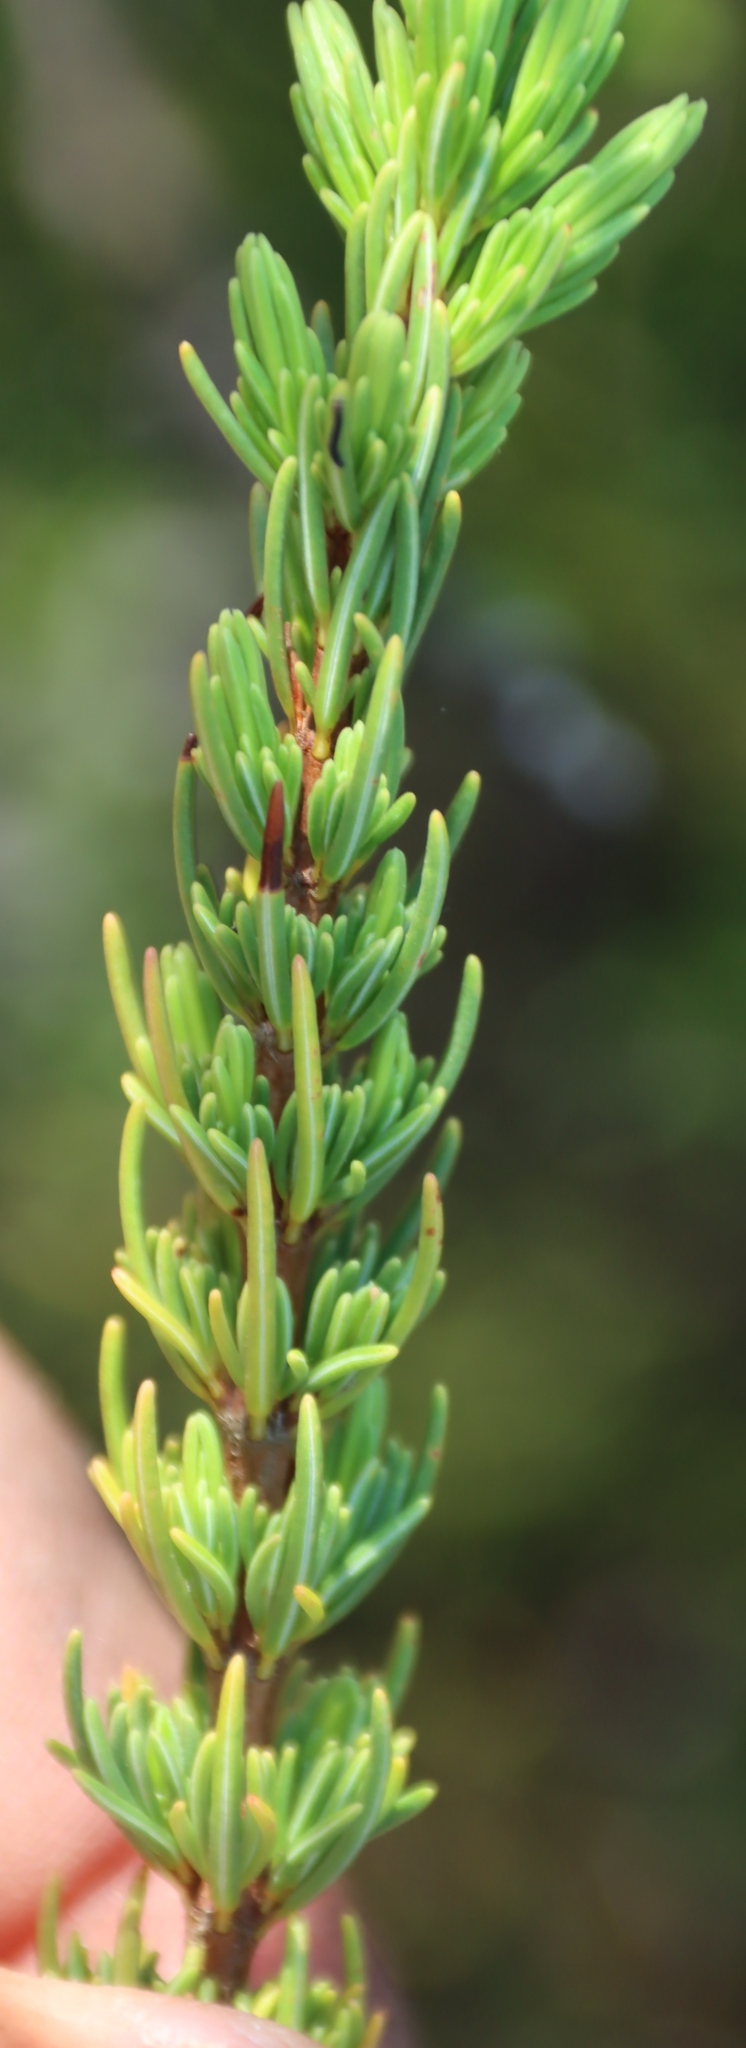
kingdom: Plantae
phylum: Tracheophyta
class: Magnoliopsida
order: Ericales
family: Ericaceae
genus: Erica
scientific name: Erica plukenetii
